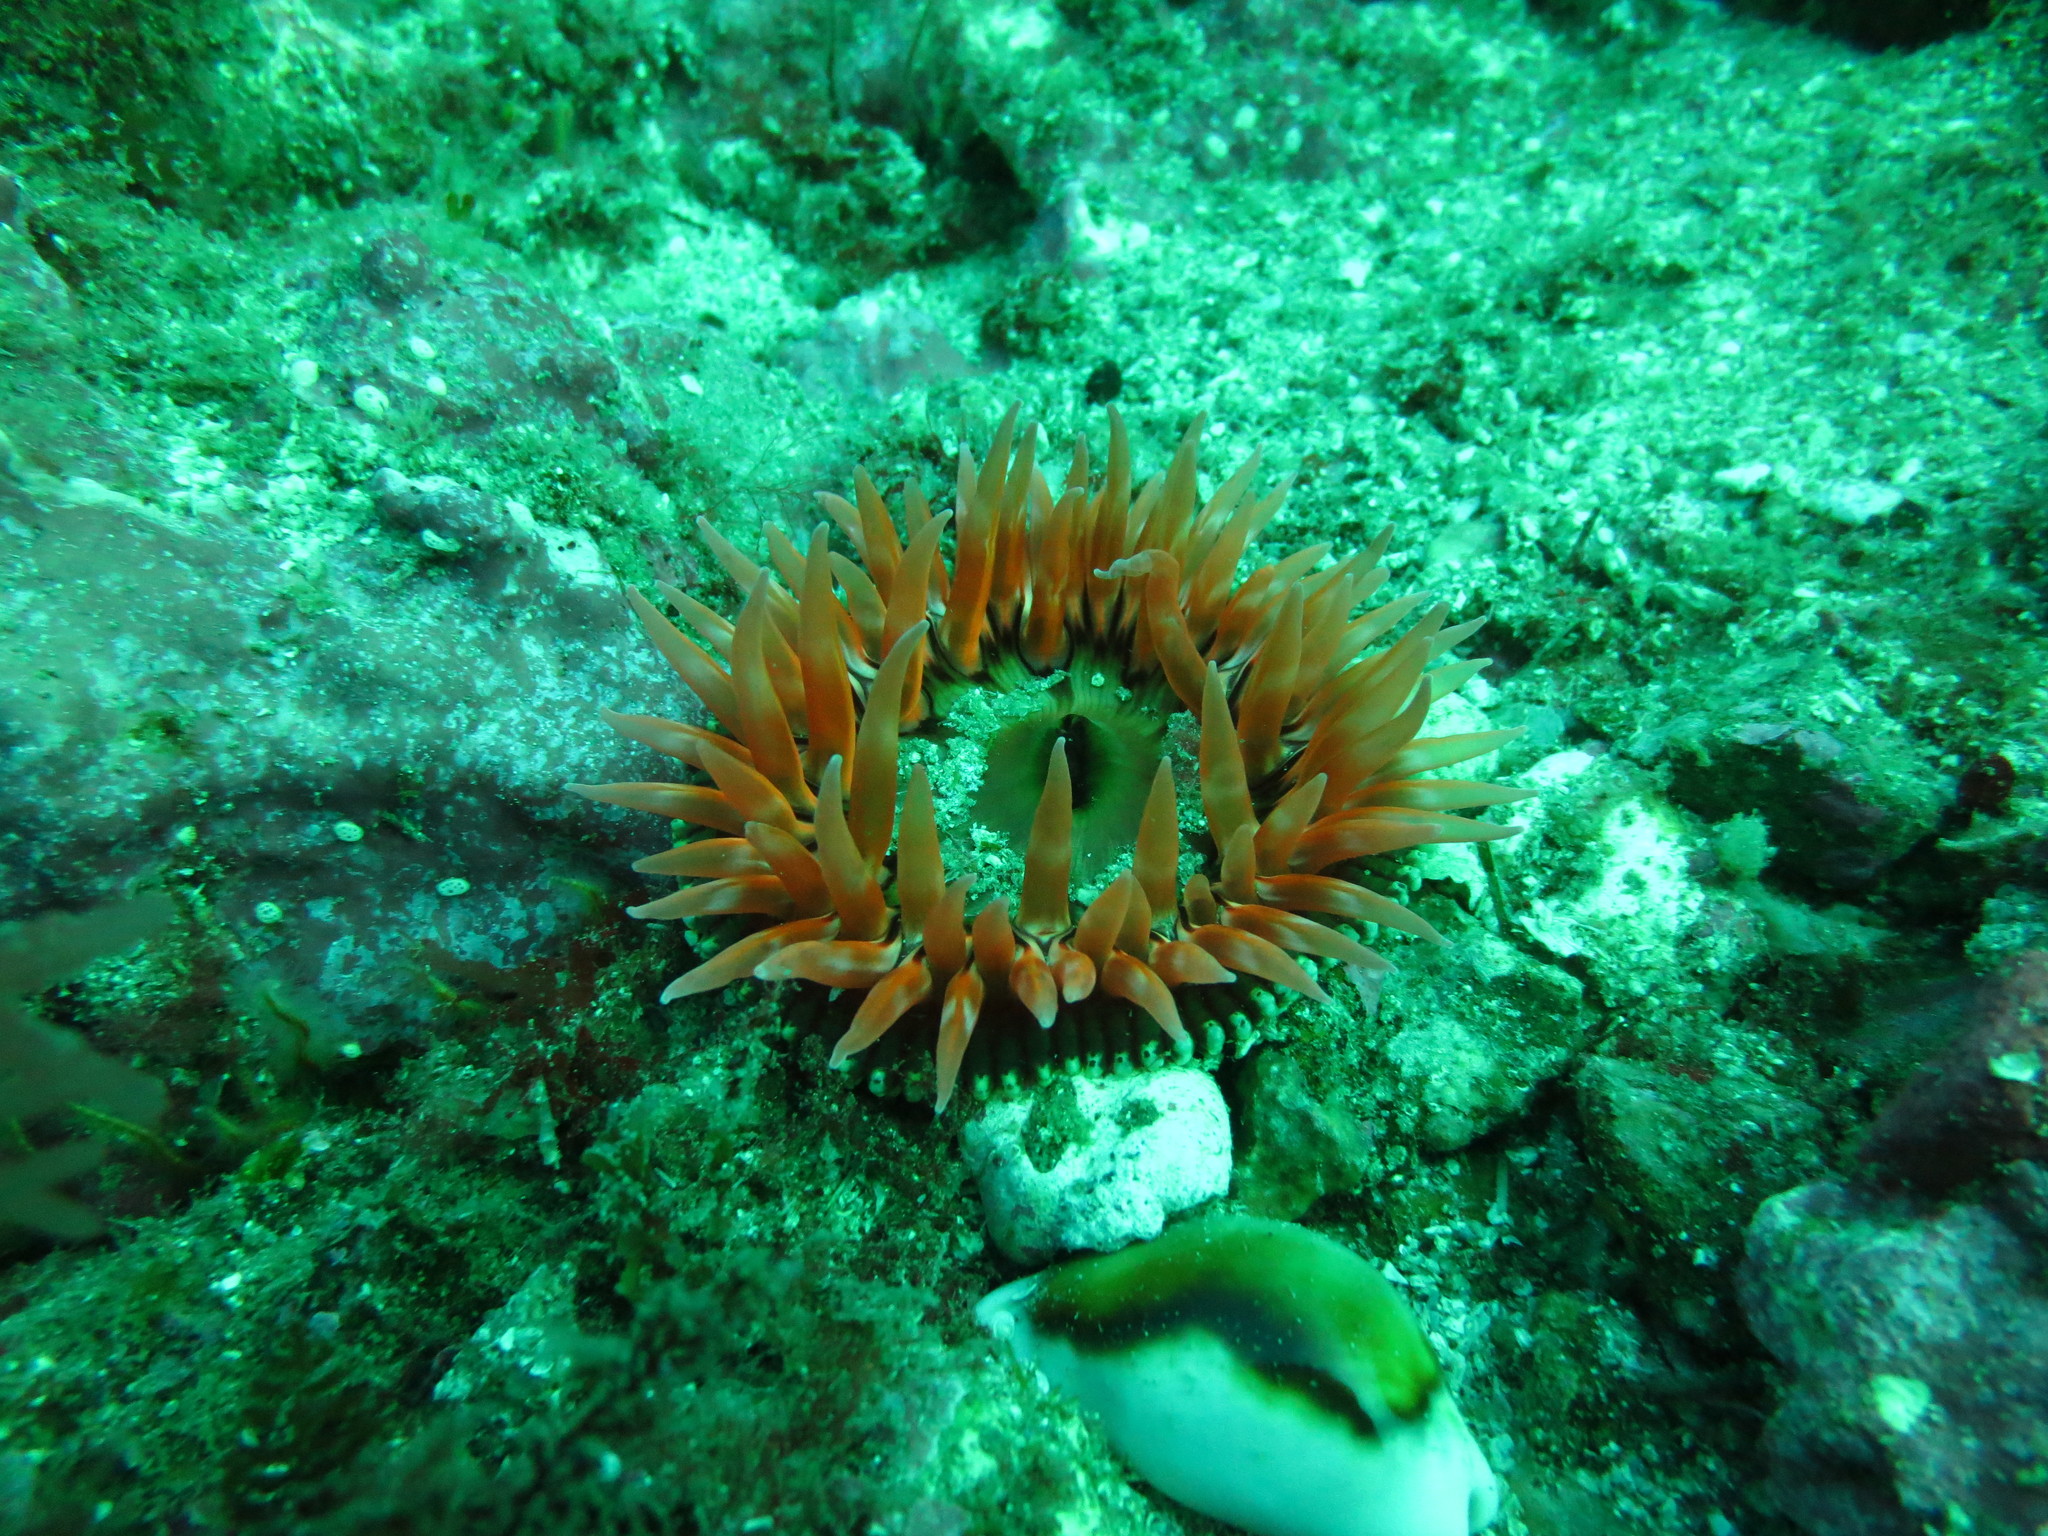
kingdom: Animalia
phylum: Mollusca
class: Gastropoda
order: Littorinimorpha
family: Cypraeidae
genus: Neobernaya
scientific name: Neobernaya spadicea
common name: Chestnut cowrie
